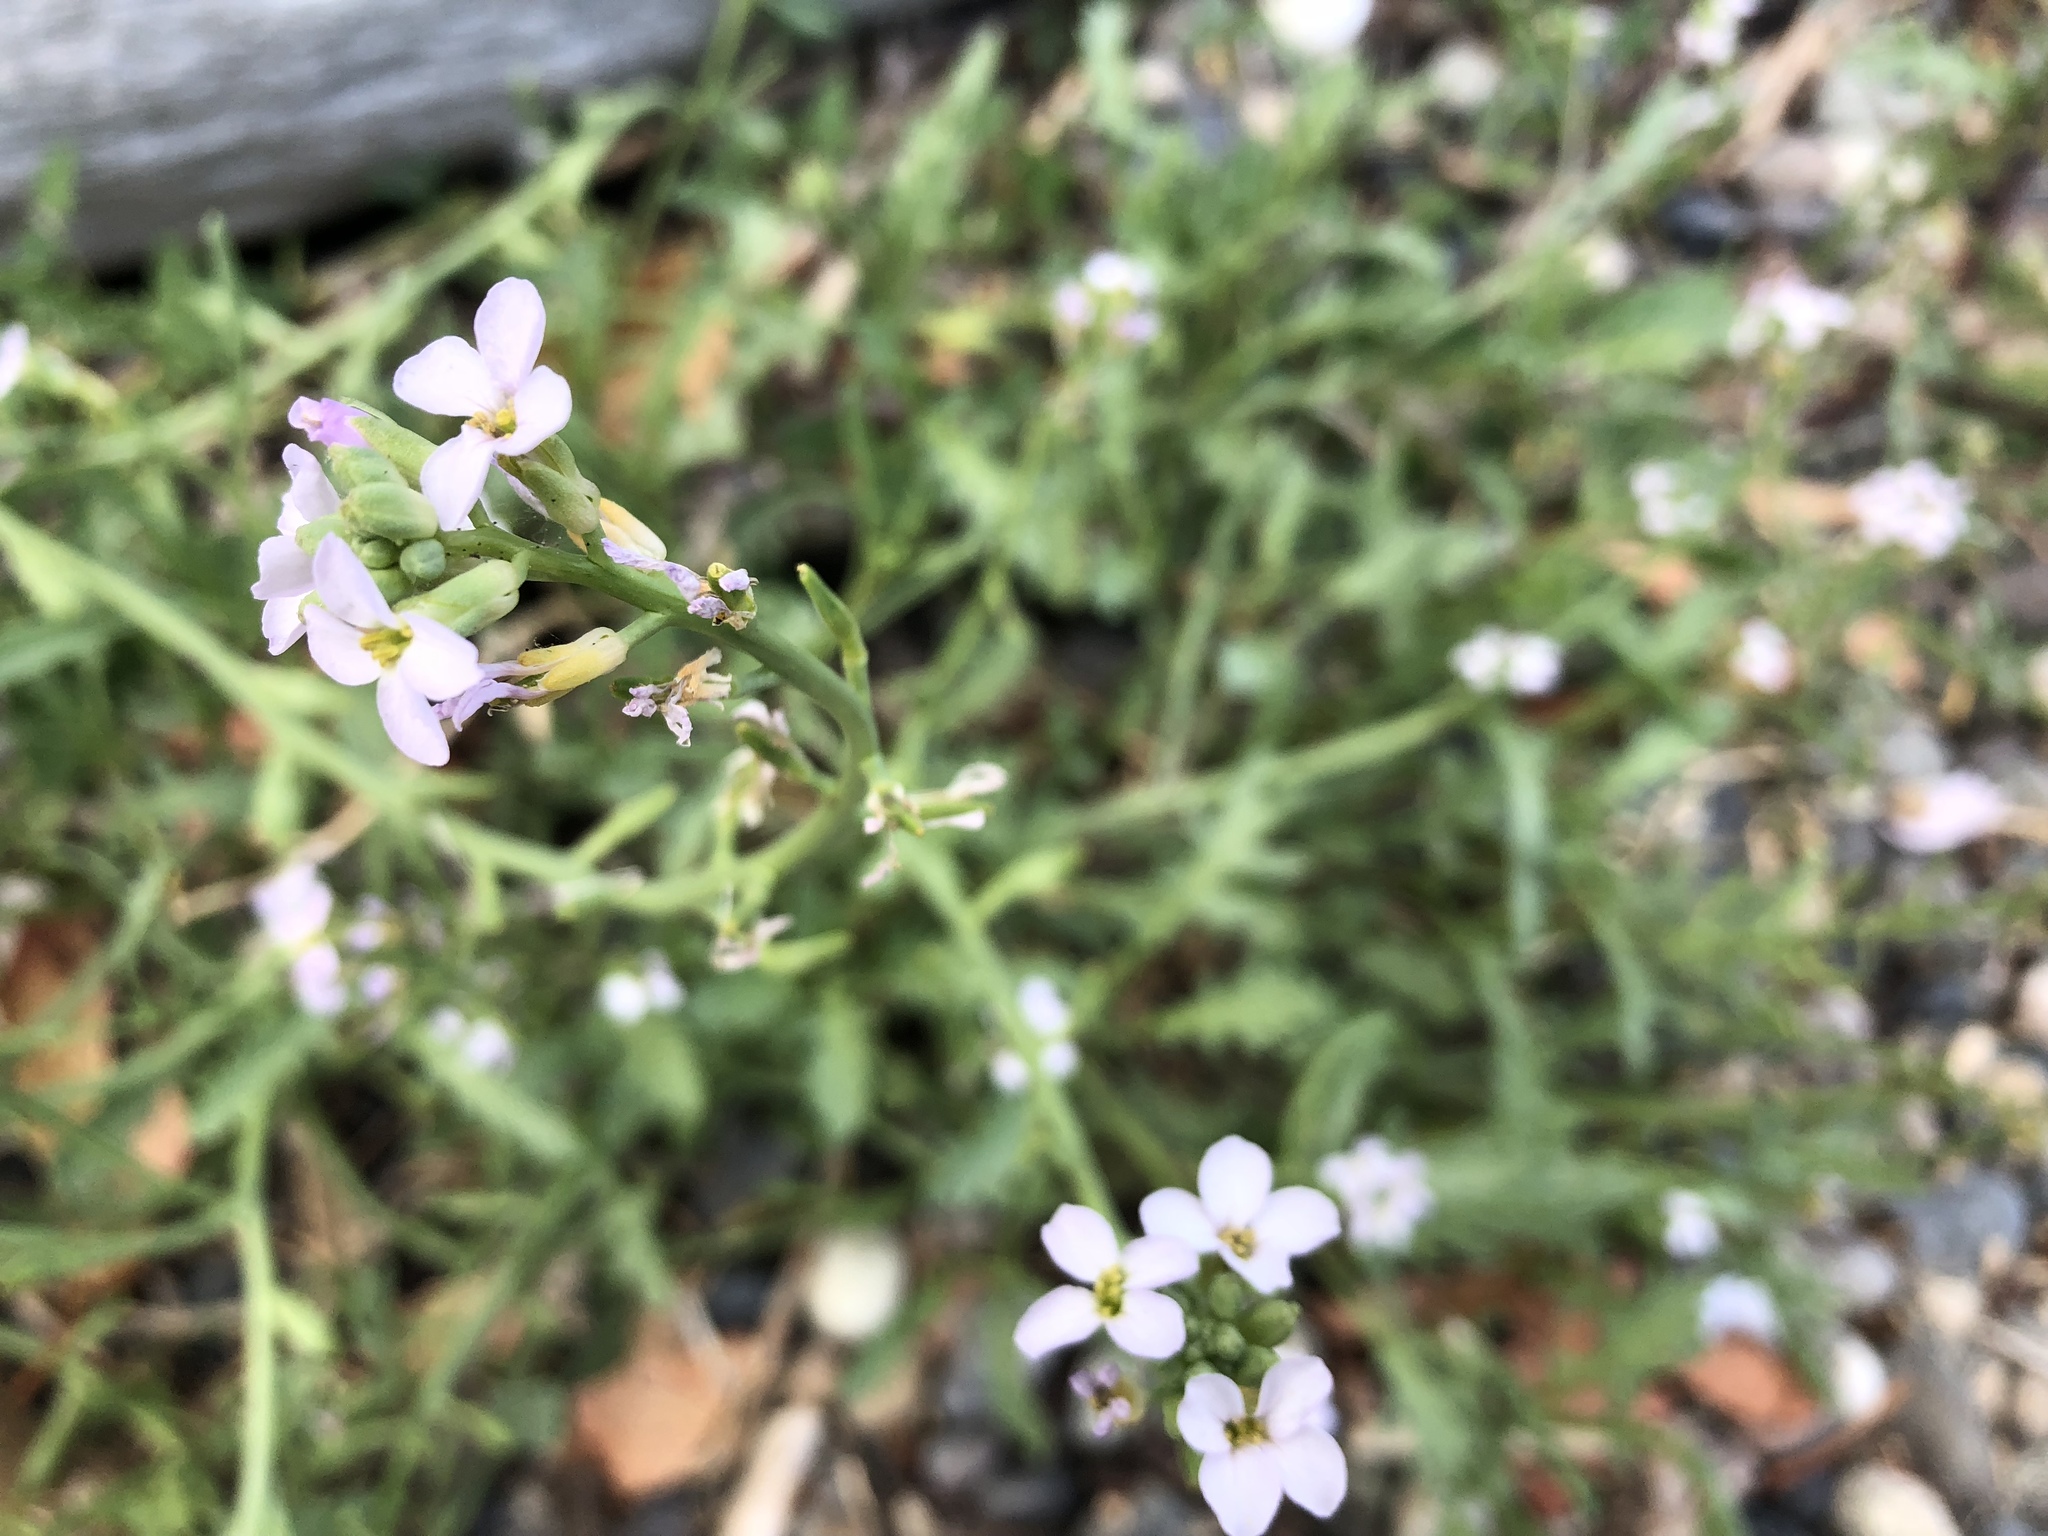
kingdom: Plantae
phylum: Tracheophyta
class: Magnoliopsida
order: Brassicales
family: Brassicaceae
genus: Cakile
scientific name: Cakile maritima
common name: Sea rocket
